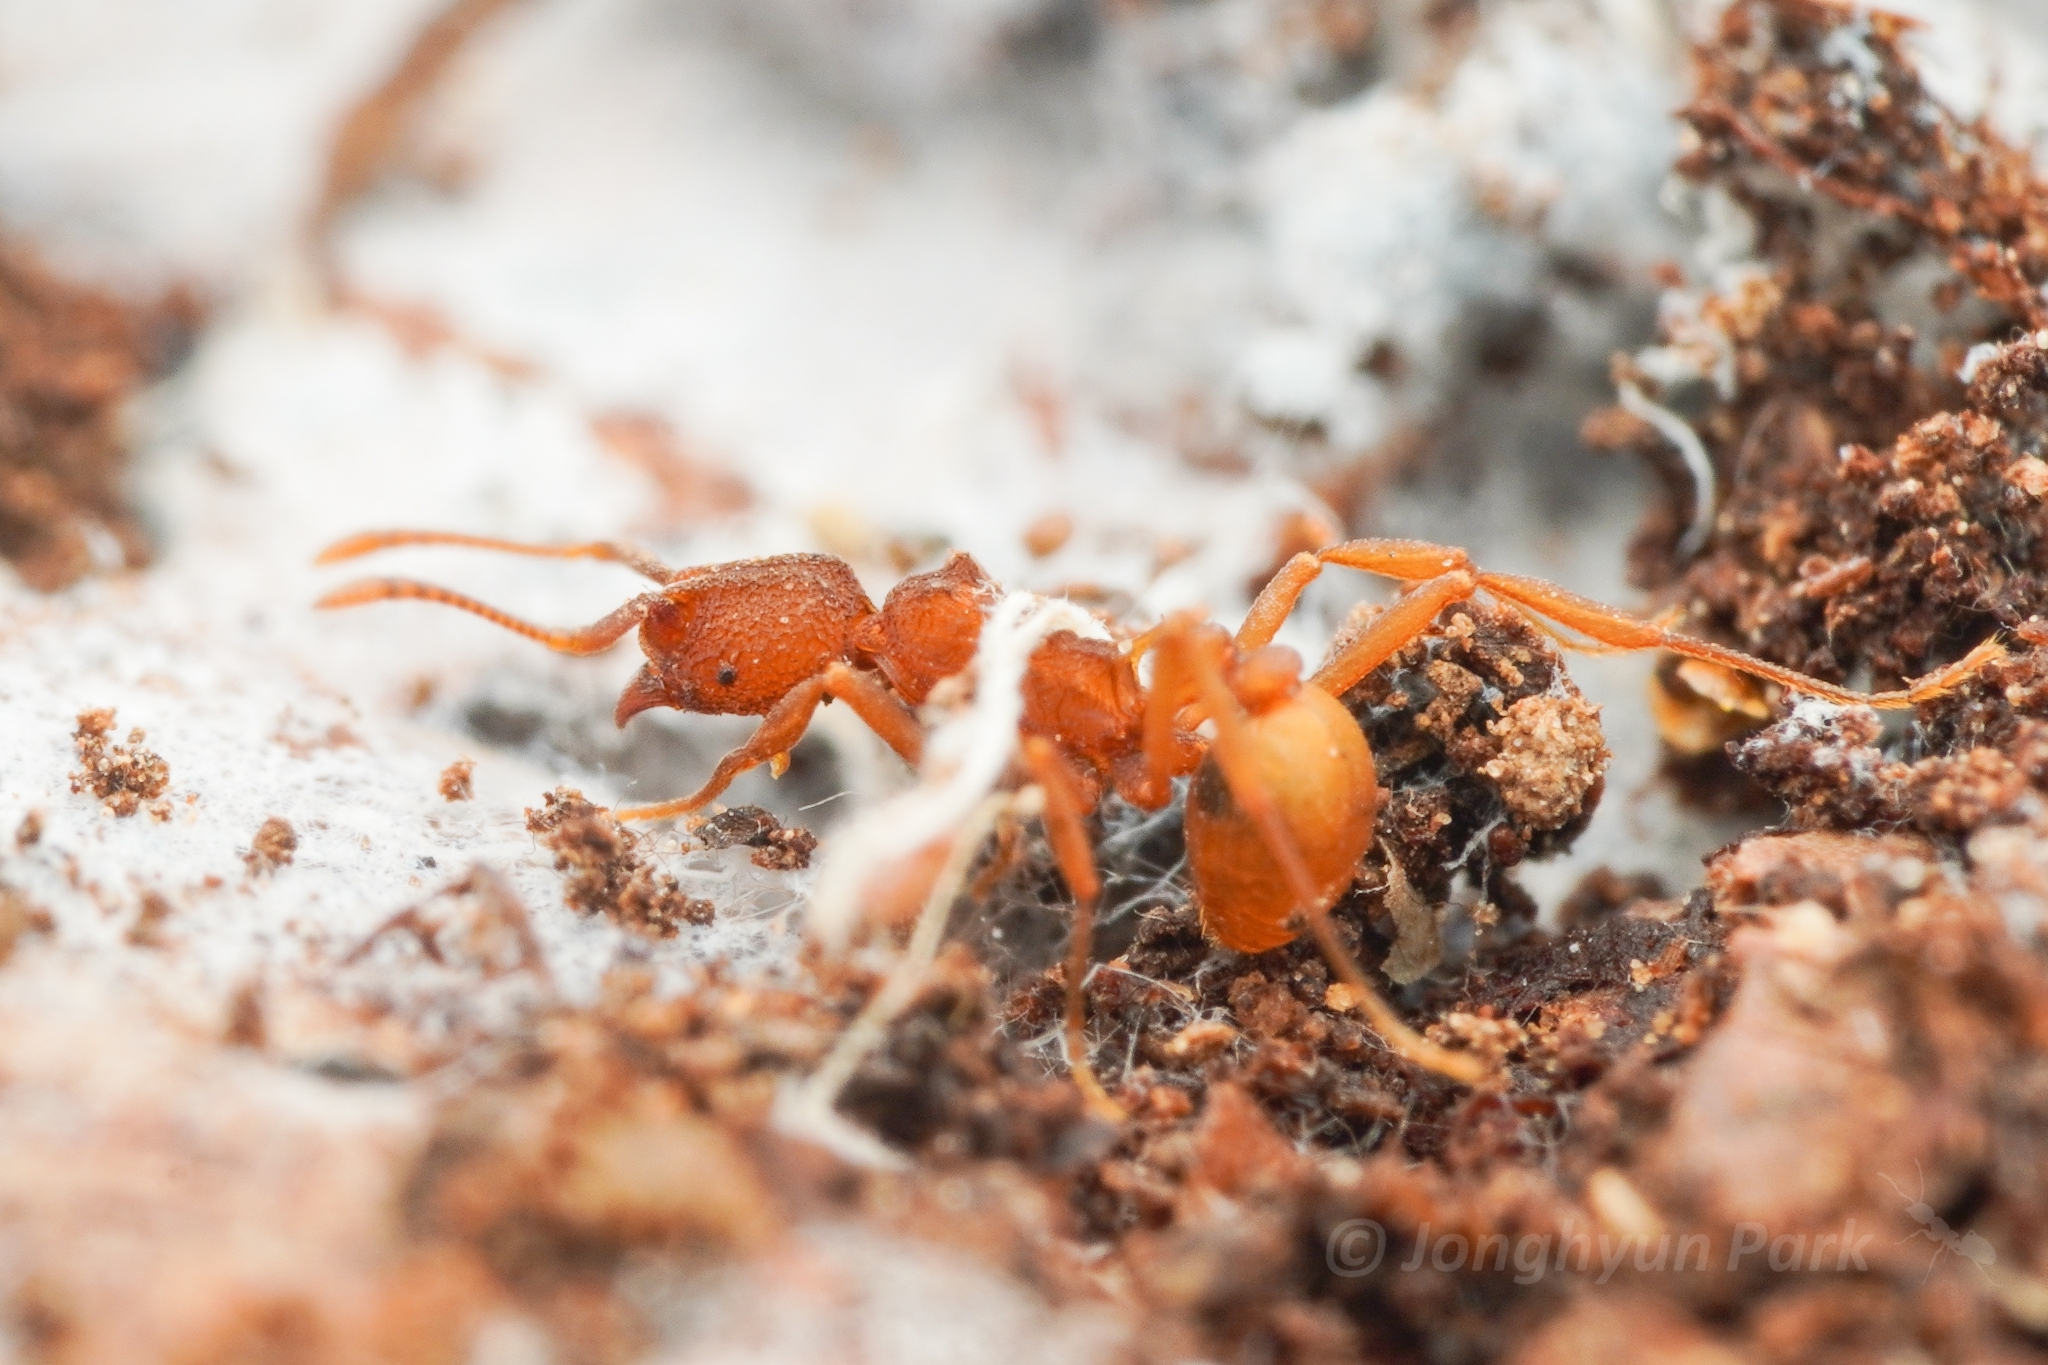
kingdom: Animalia
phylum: Arthropoda
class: Insecta
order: Hymenoptera
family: Formicidae
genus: Dacatria
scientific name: Dacatria templaris
